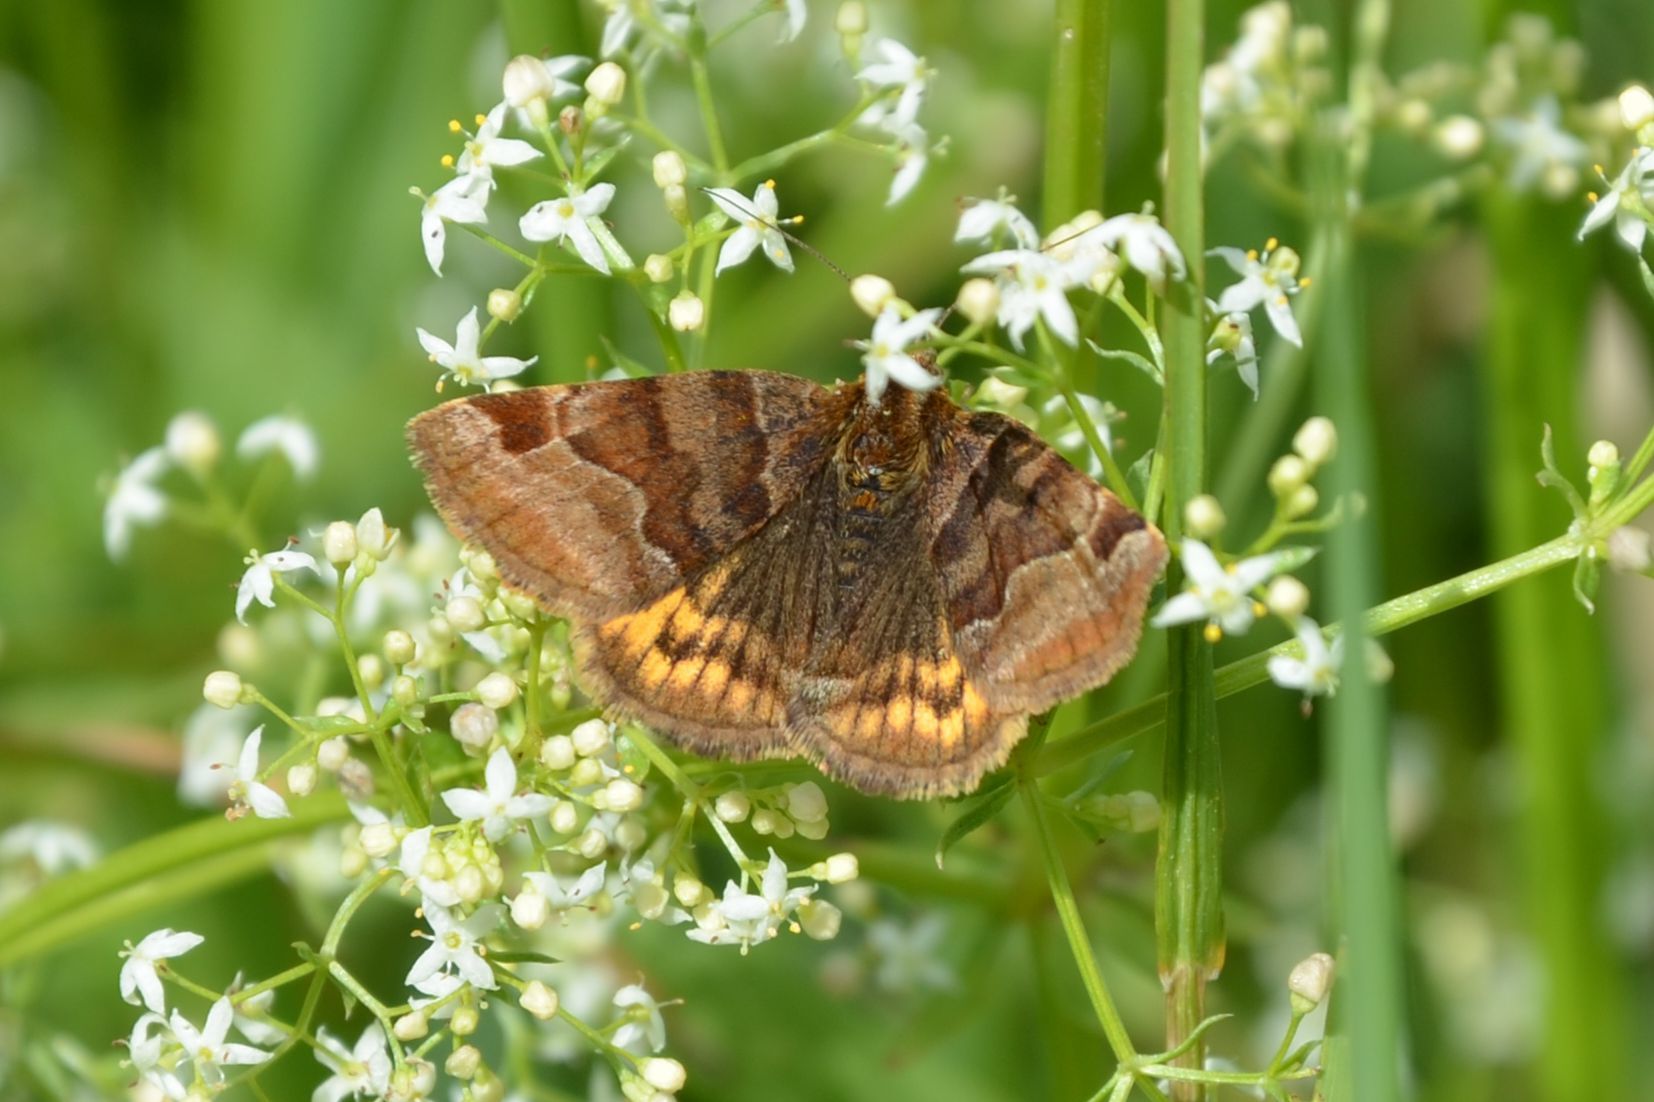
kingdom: Animalia
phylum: Arthropoda
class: Insecta
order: Lepidoptera
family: Erebidae
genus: Euclidia
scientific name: Euclidia glyphica
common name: Burnet companion
